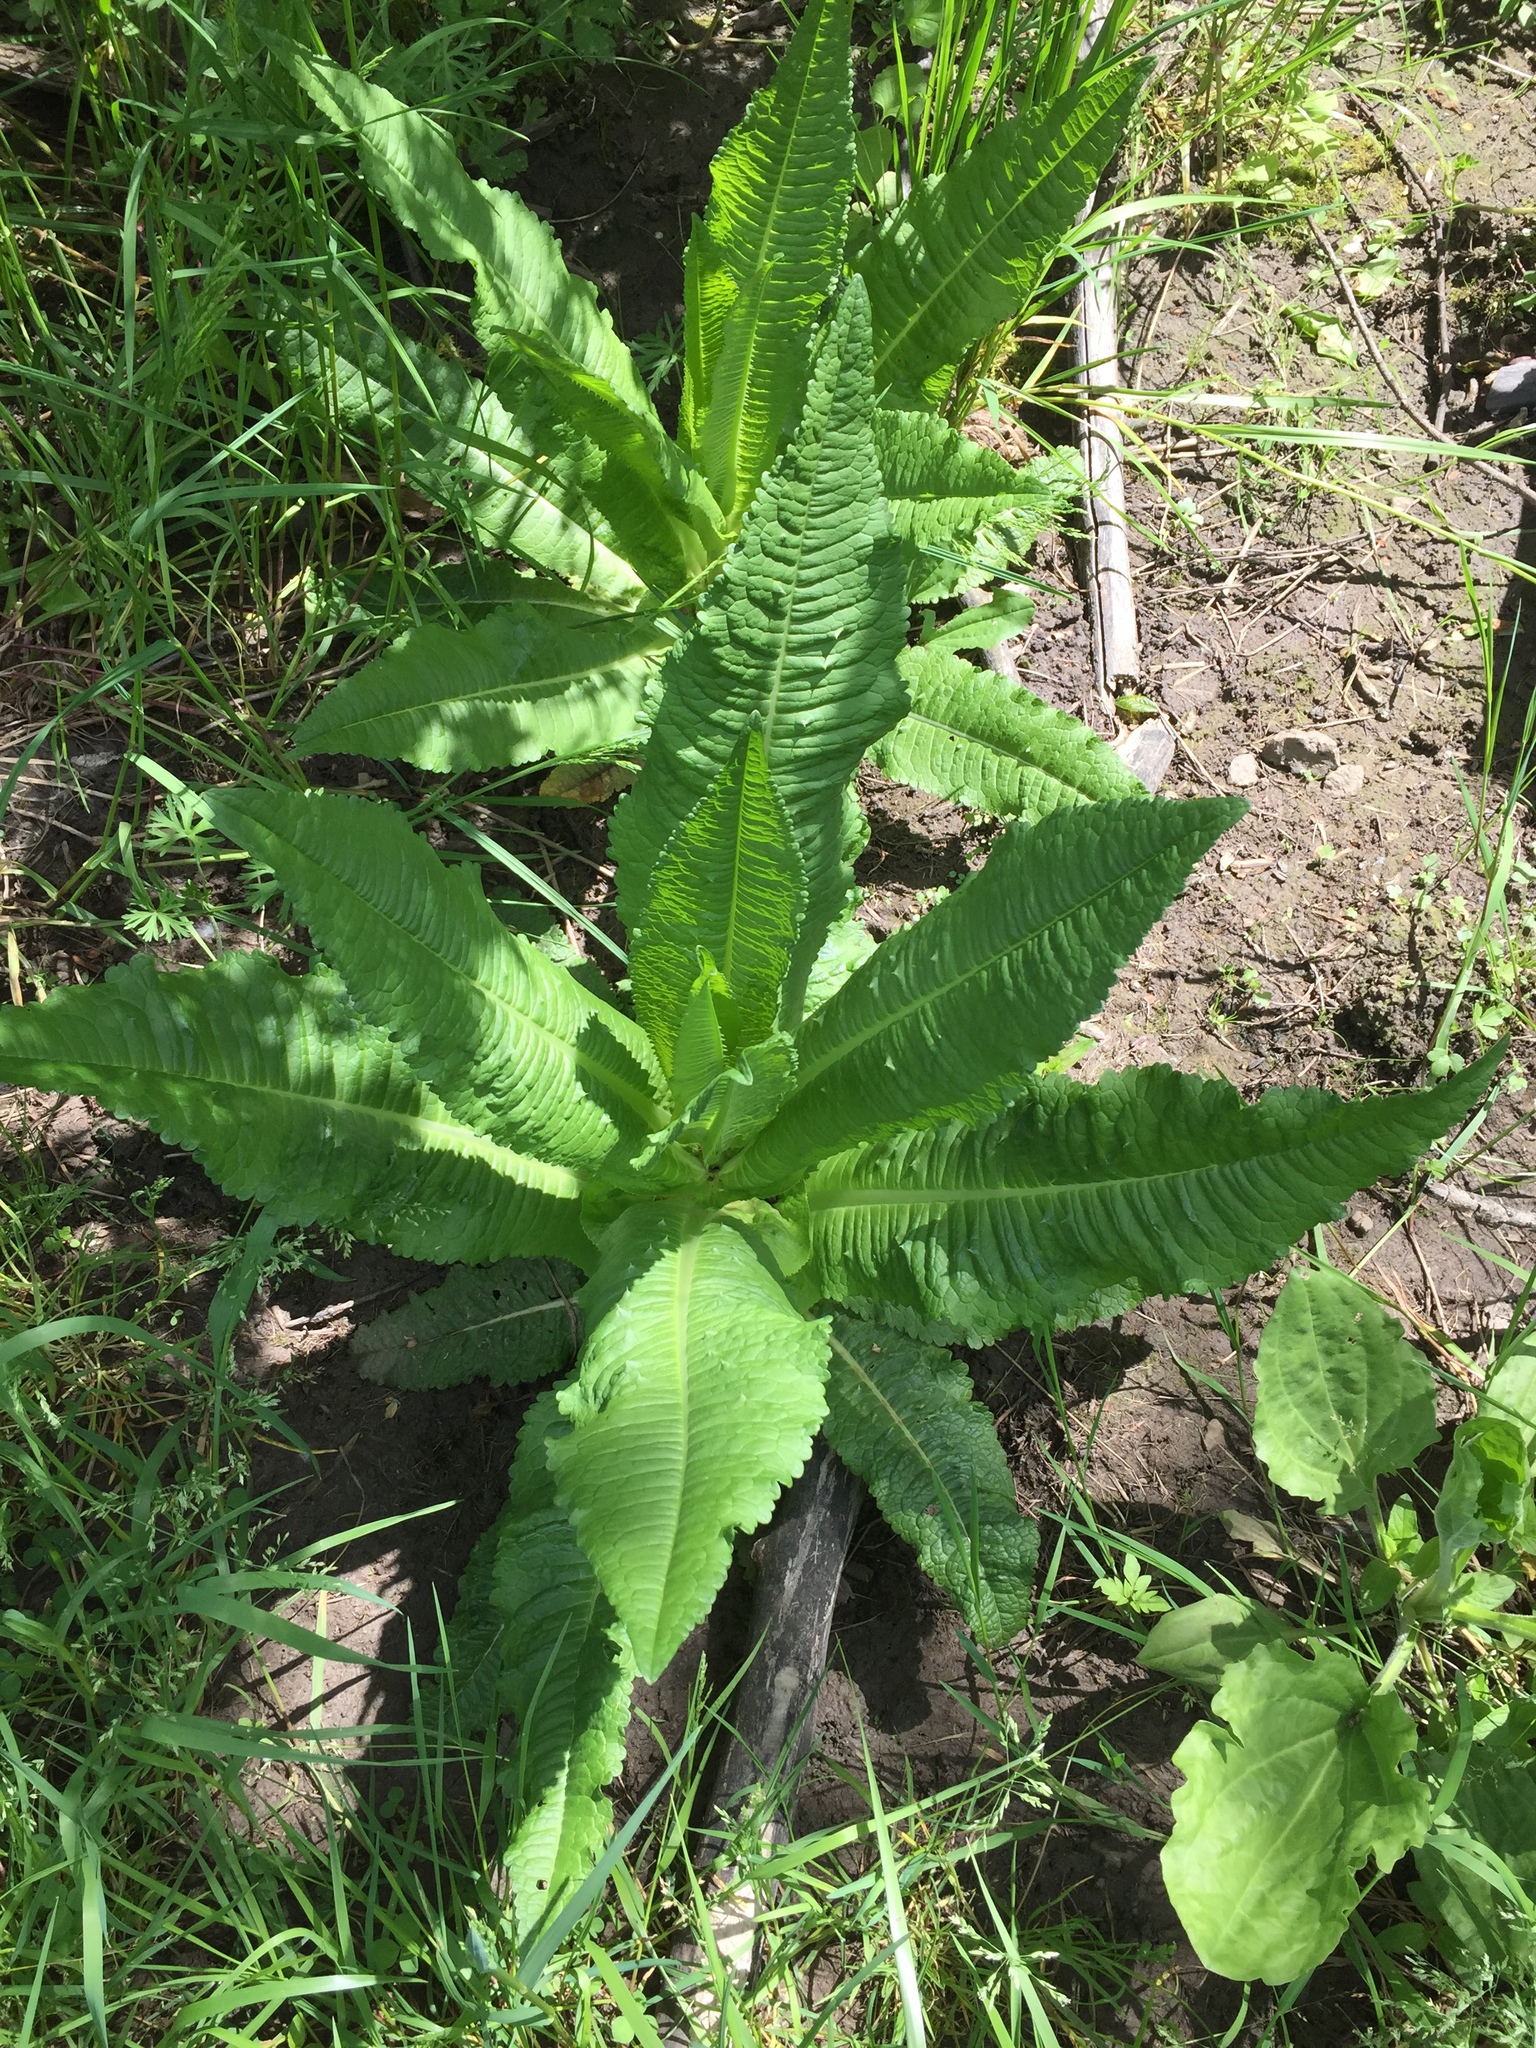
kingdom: Plantae
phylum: Tracheophyta
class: Magnoliopsida
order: Dipsacales
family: Caprifoliaceae
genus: Dipsacus
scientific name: Dipsacus fullonum
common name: Teasel
